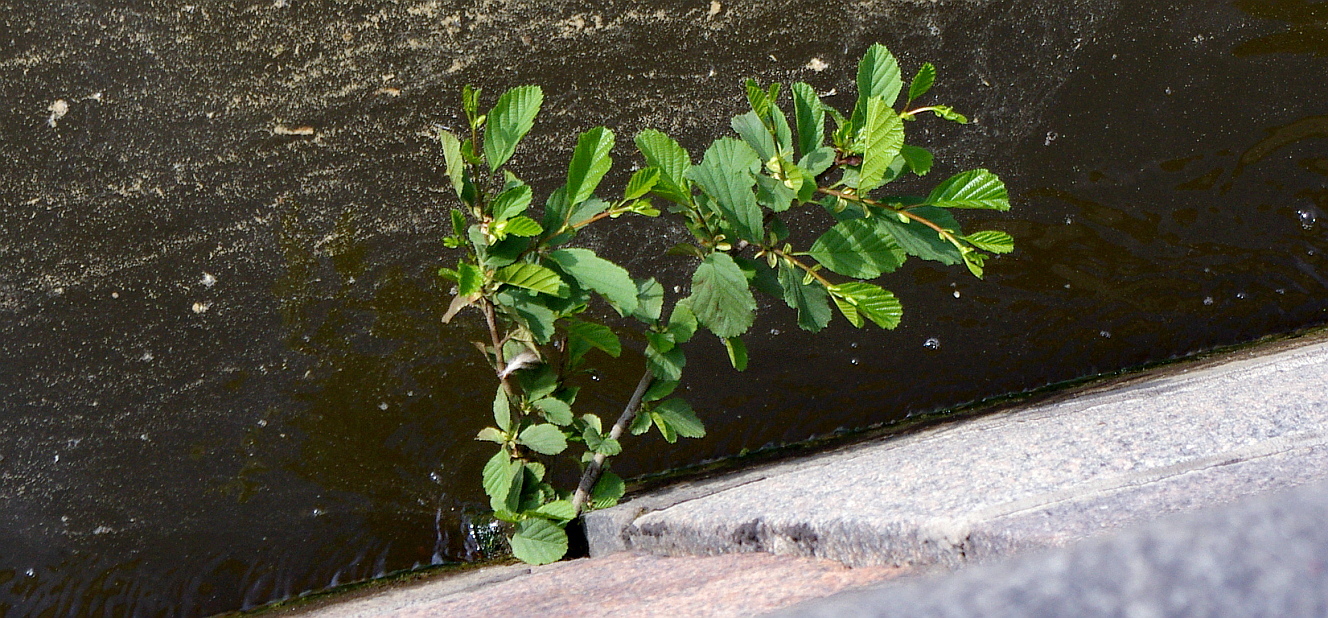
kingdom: Plantae
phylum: Tracheophyta
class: Magnoliopsida
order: Fagales
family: Betulaceae
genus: Alnus
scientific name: Alnus glutinosa
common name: Black alder
